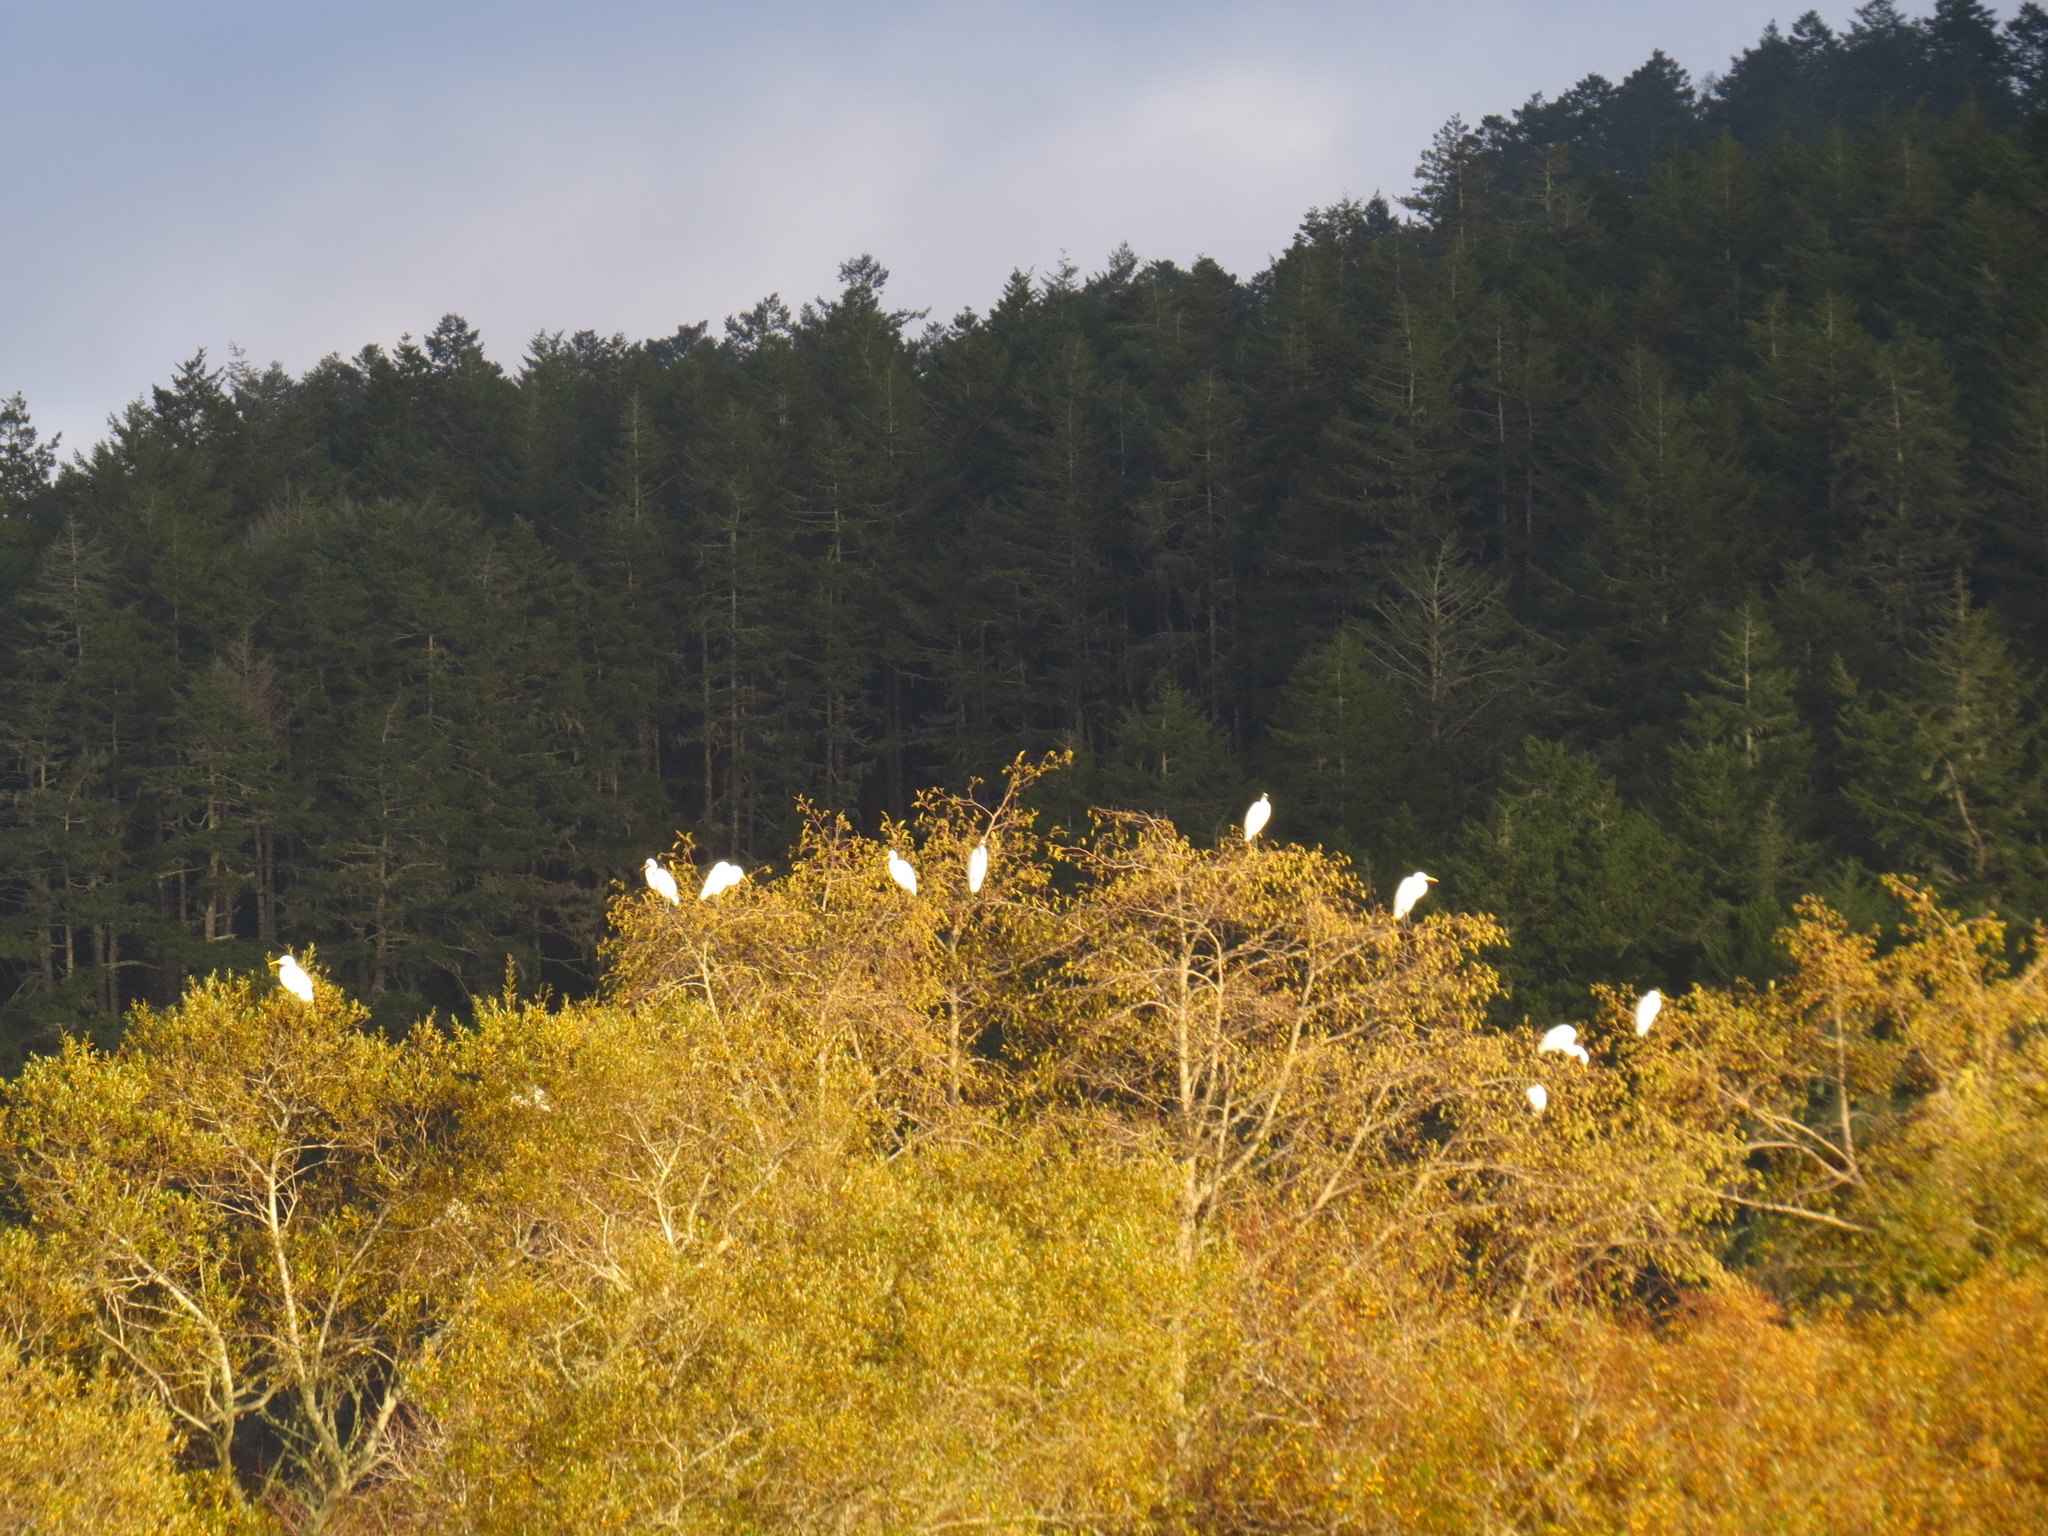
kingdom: Animalia
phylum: Chordata
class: Aves
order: Pelecaniformes
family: Ardeidae
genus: Ardea
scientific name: Ardea alba
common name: Great egret
